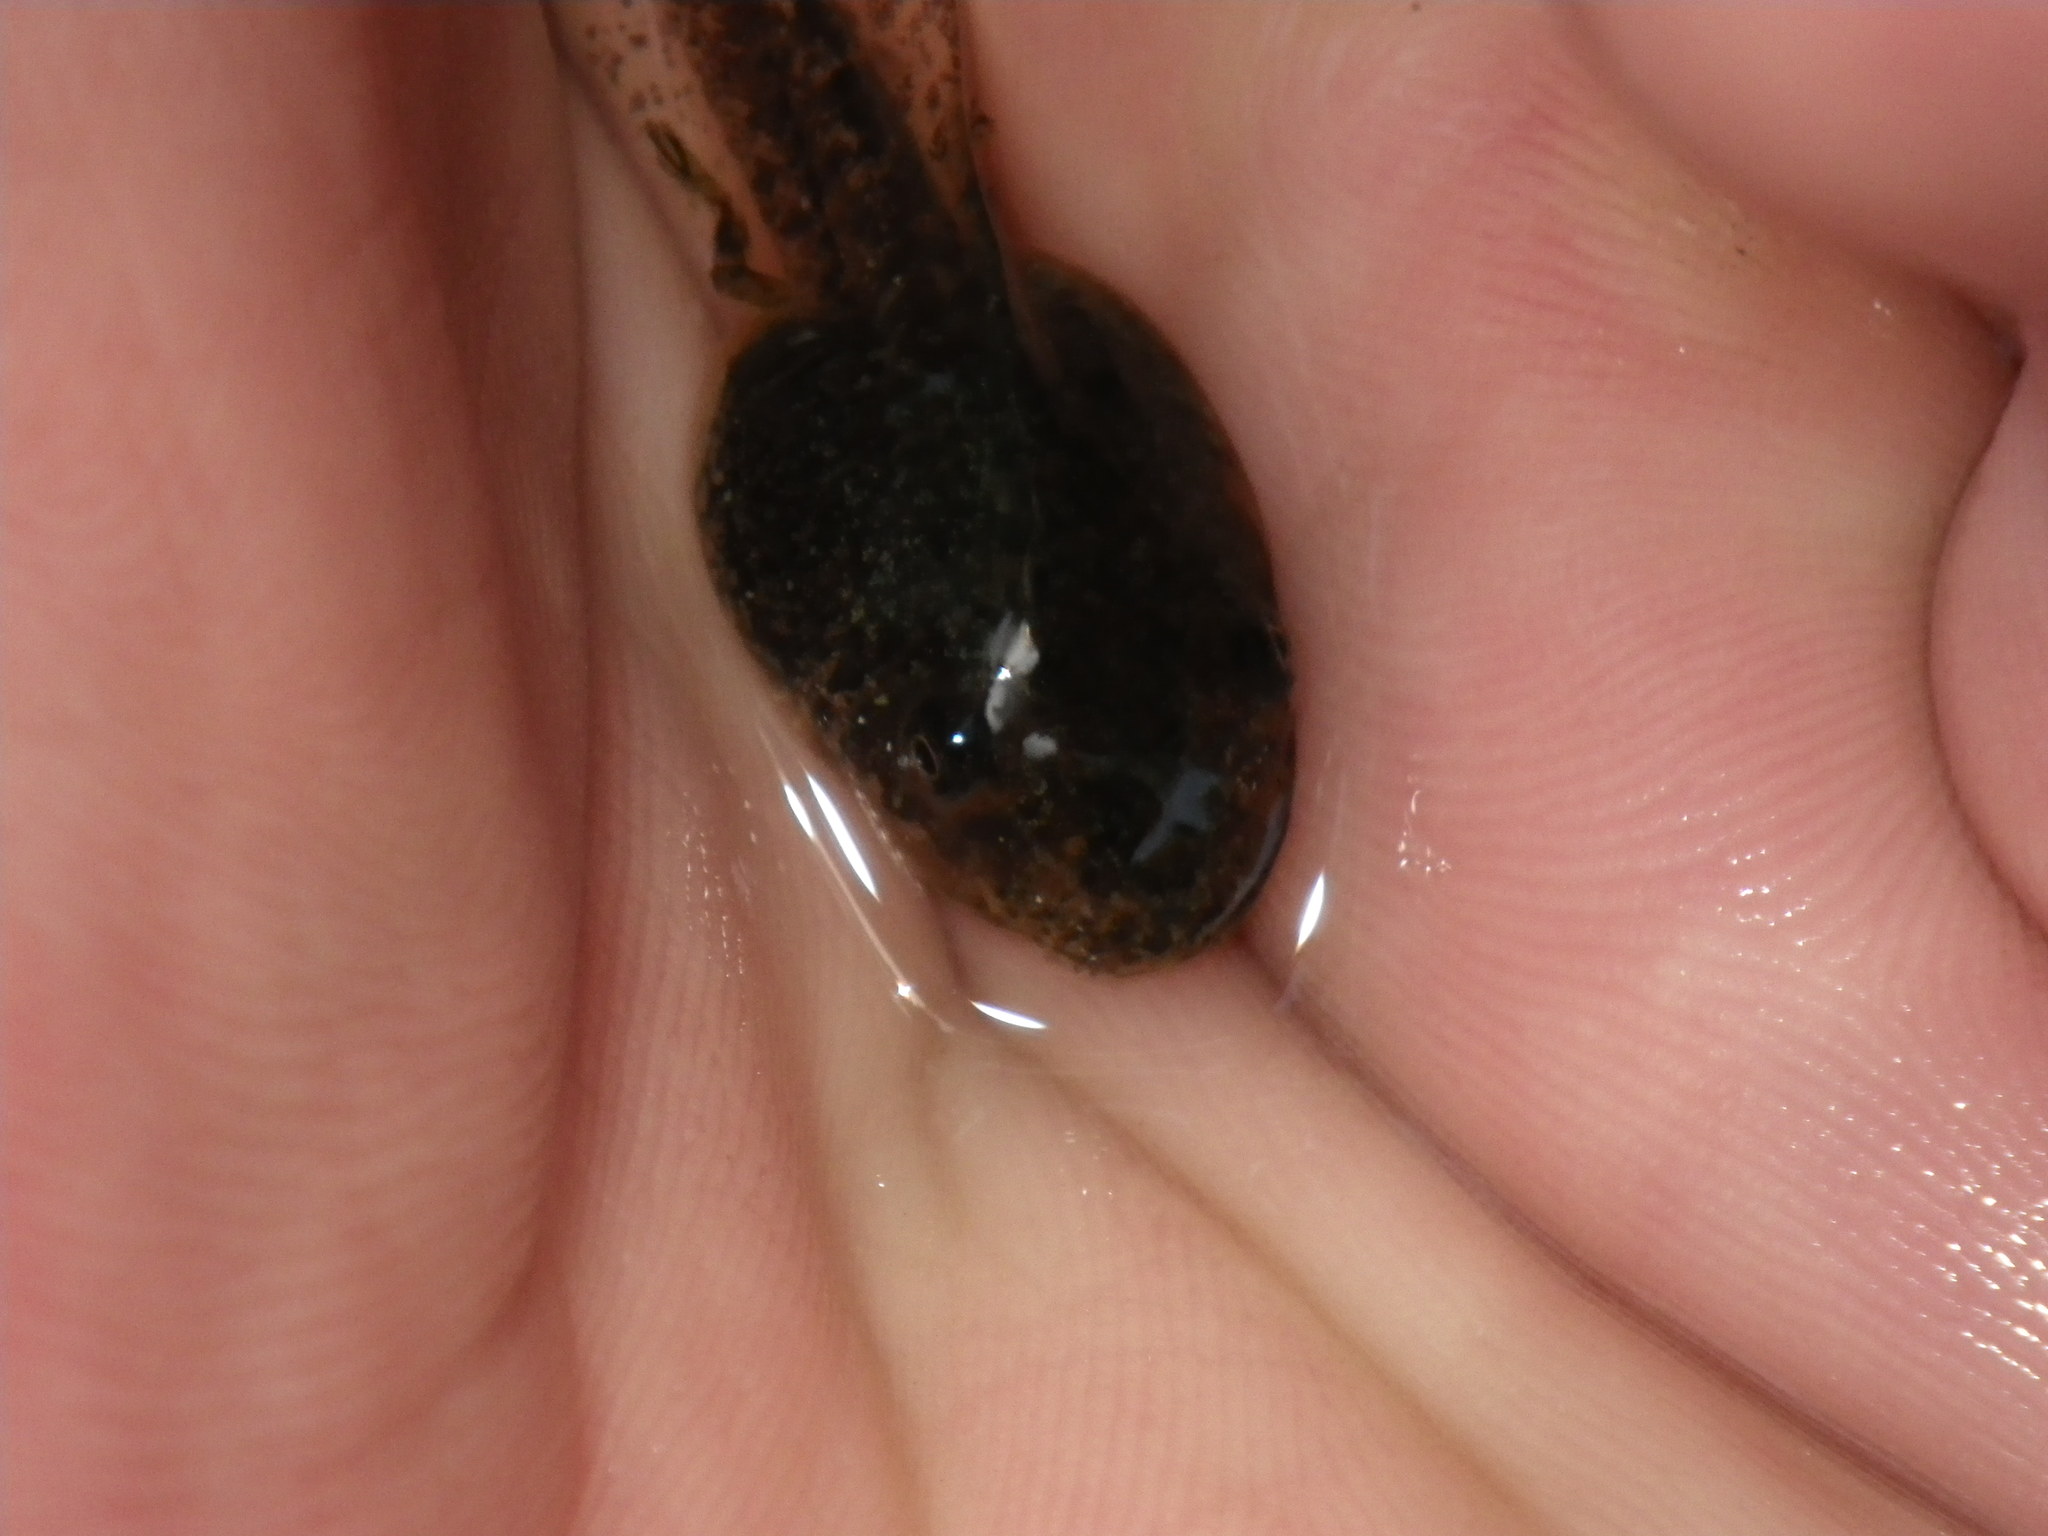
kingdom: Animalia
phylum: Chordata
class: Amphibia
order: Anura
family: Hylidae
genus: Pseudacris
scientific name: Pseudacris regilla
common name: Pacific chorus frog
